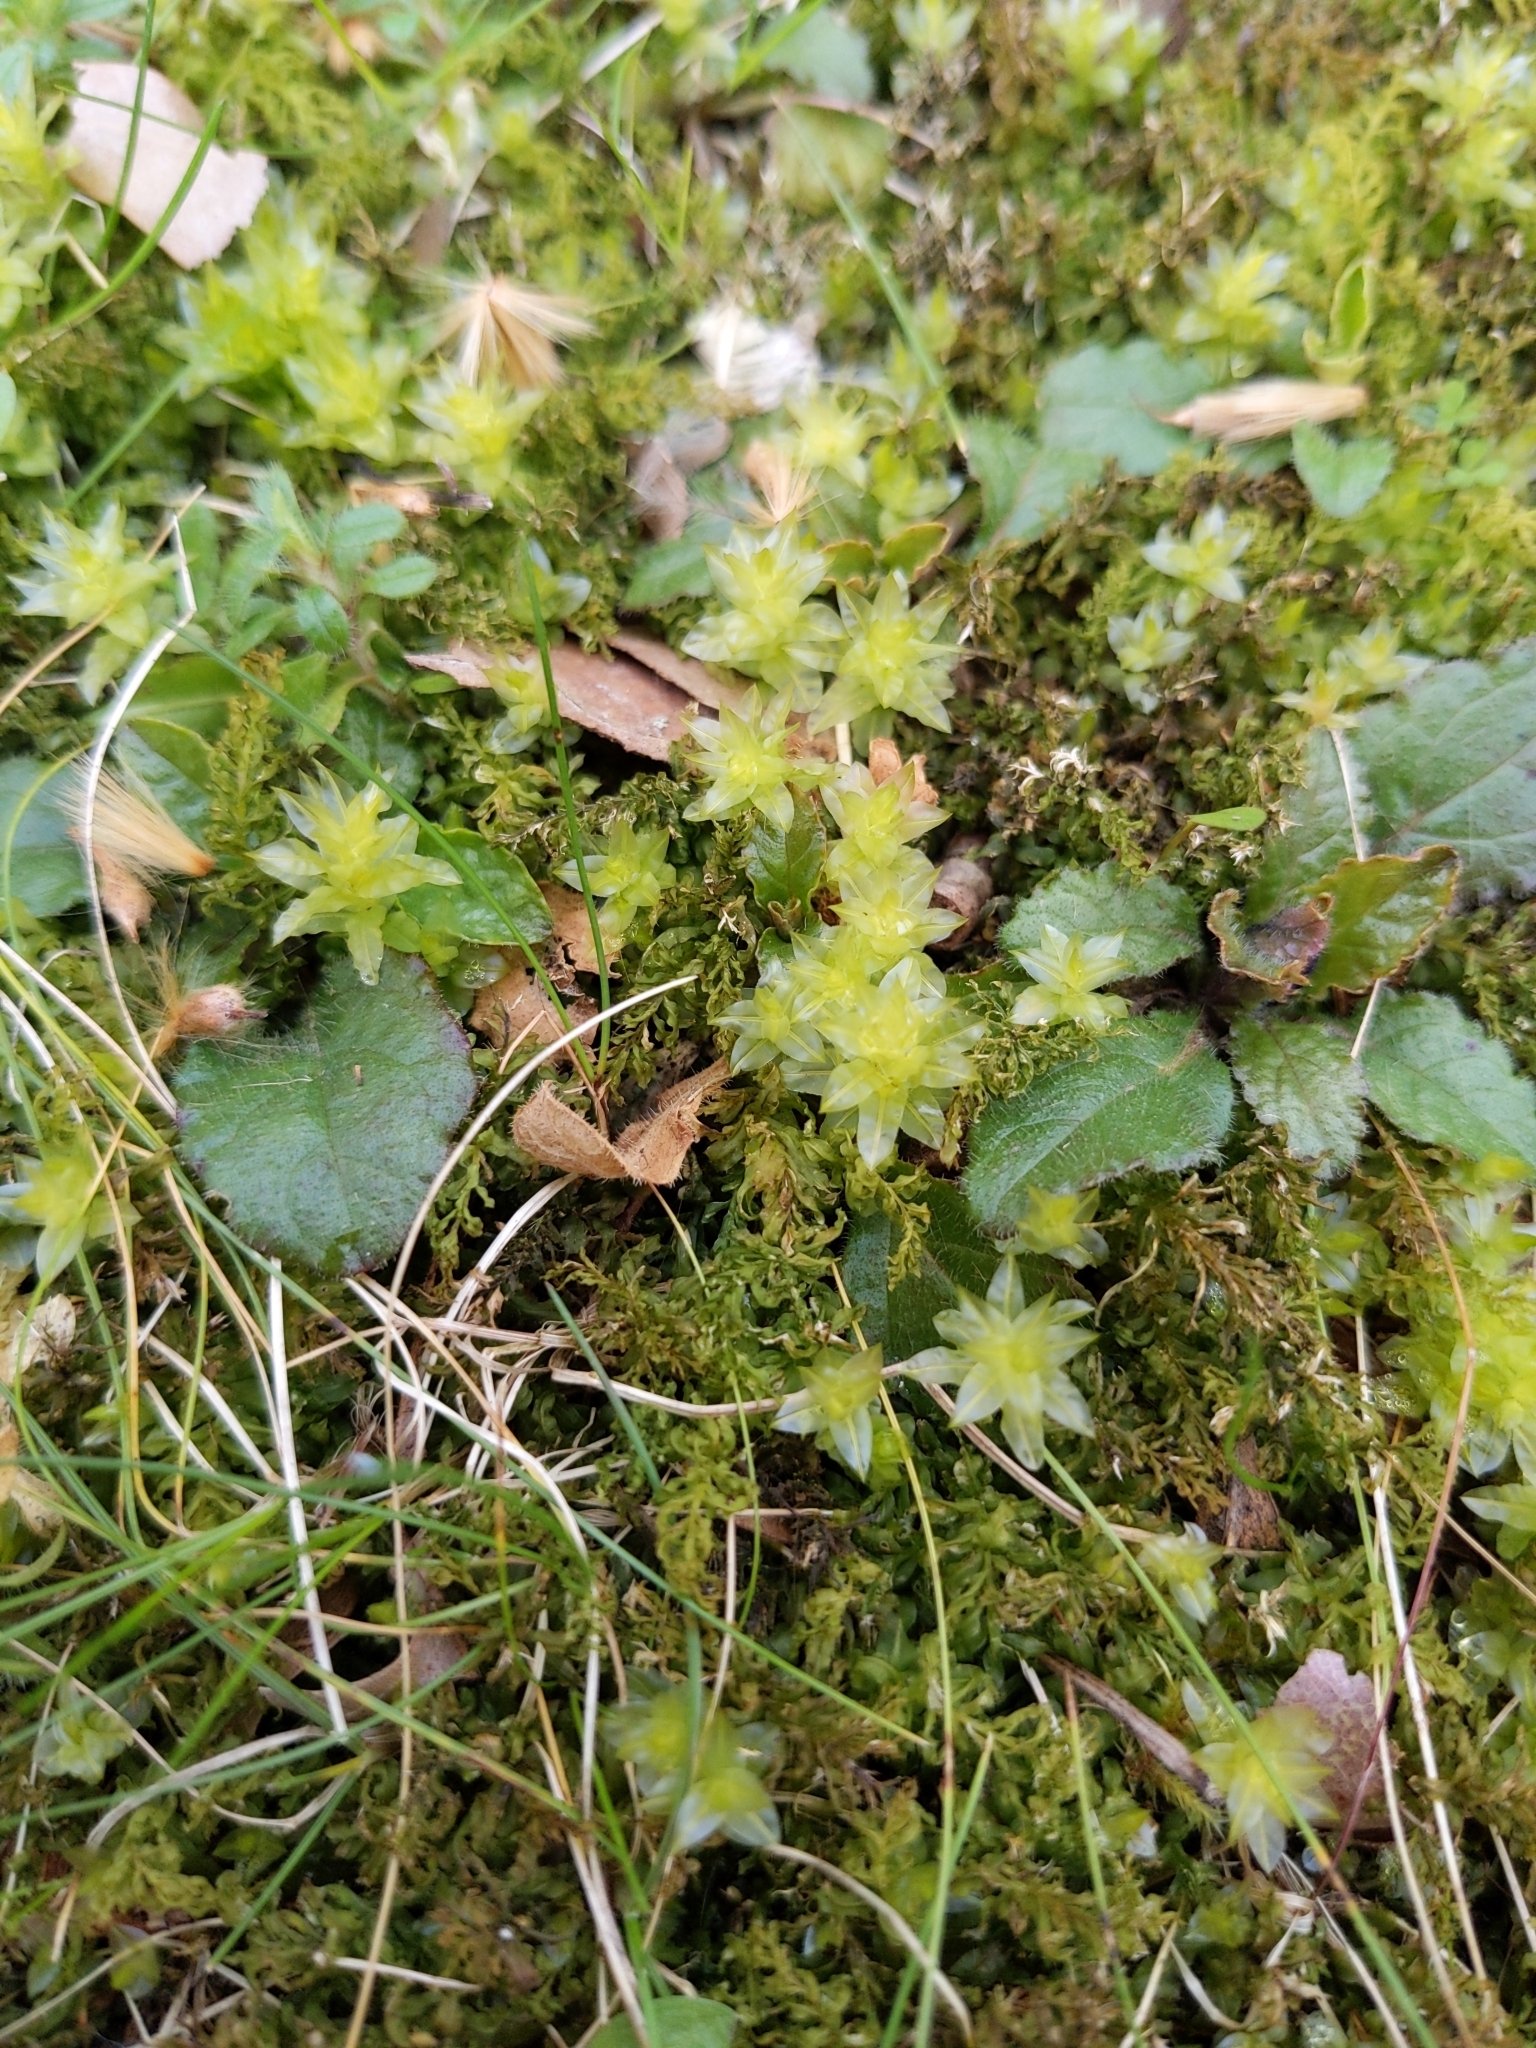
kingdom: Plantae
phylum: Bryophyta
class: Bryopsida
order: Bryales
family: Mniaceae
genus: Plagiomnium
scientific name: Plagiomnium undulatum
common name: Hart's-tongue thyme-moss
